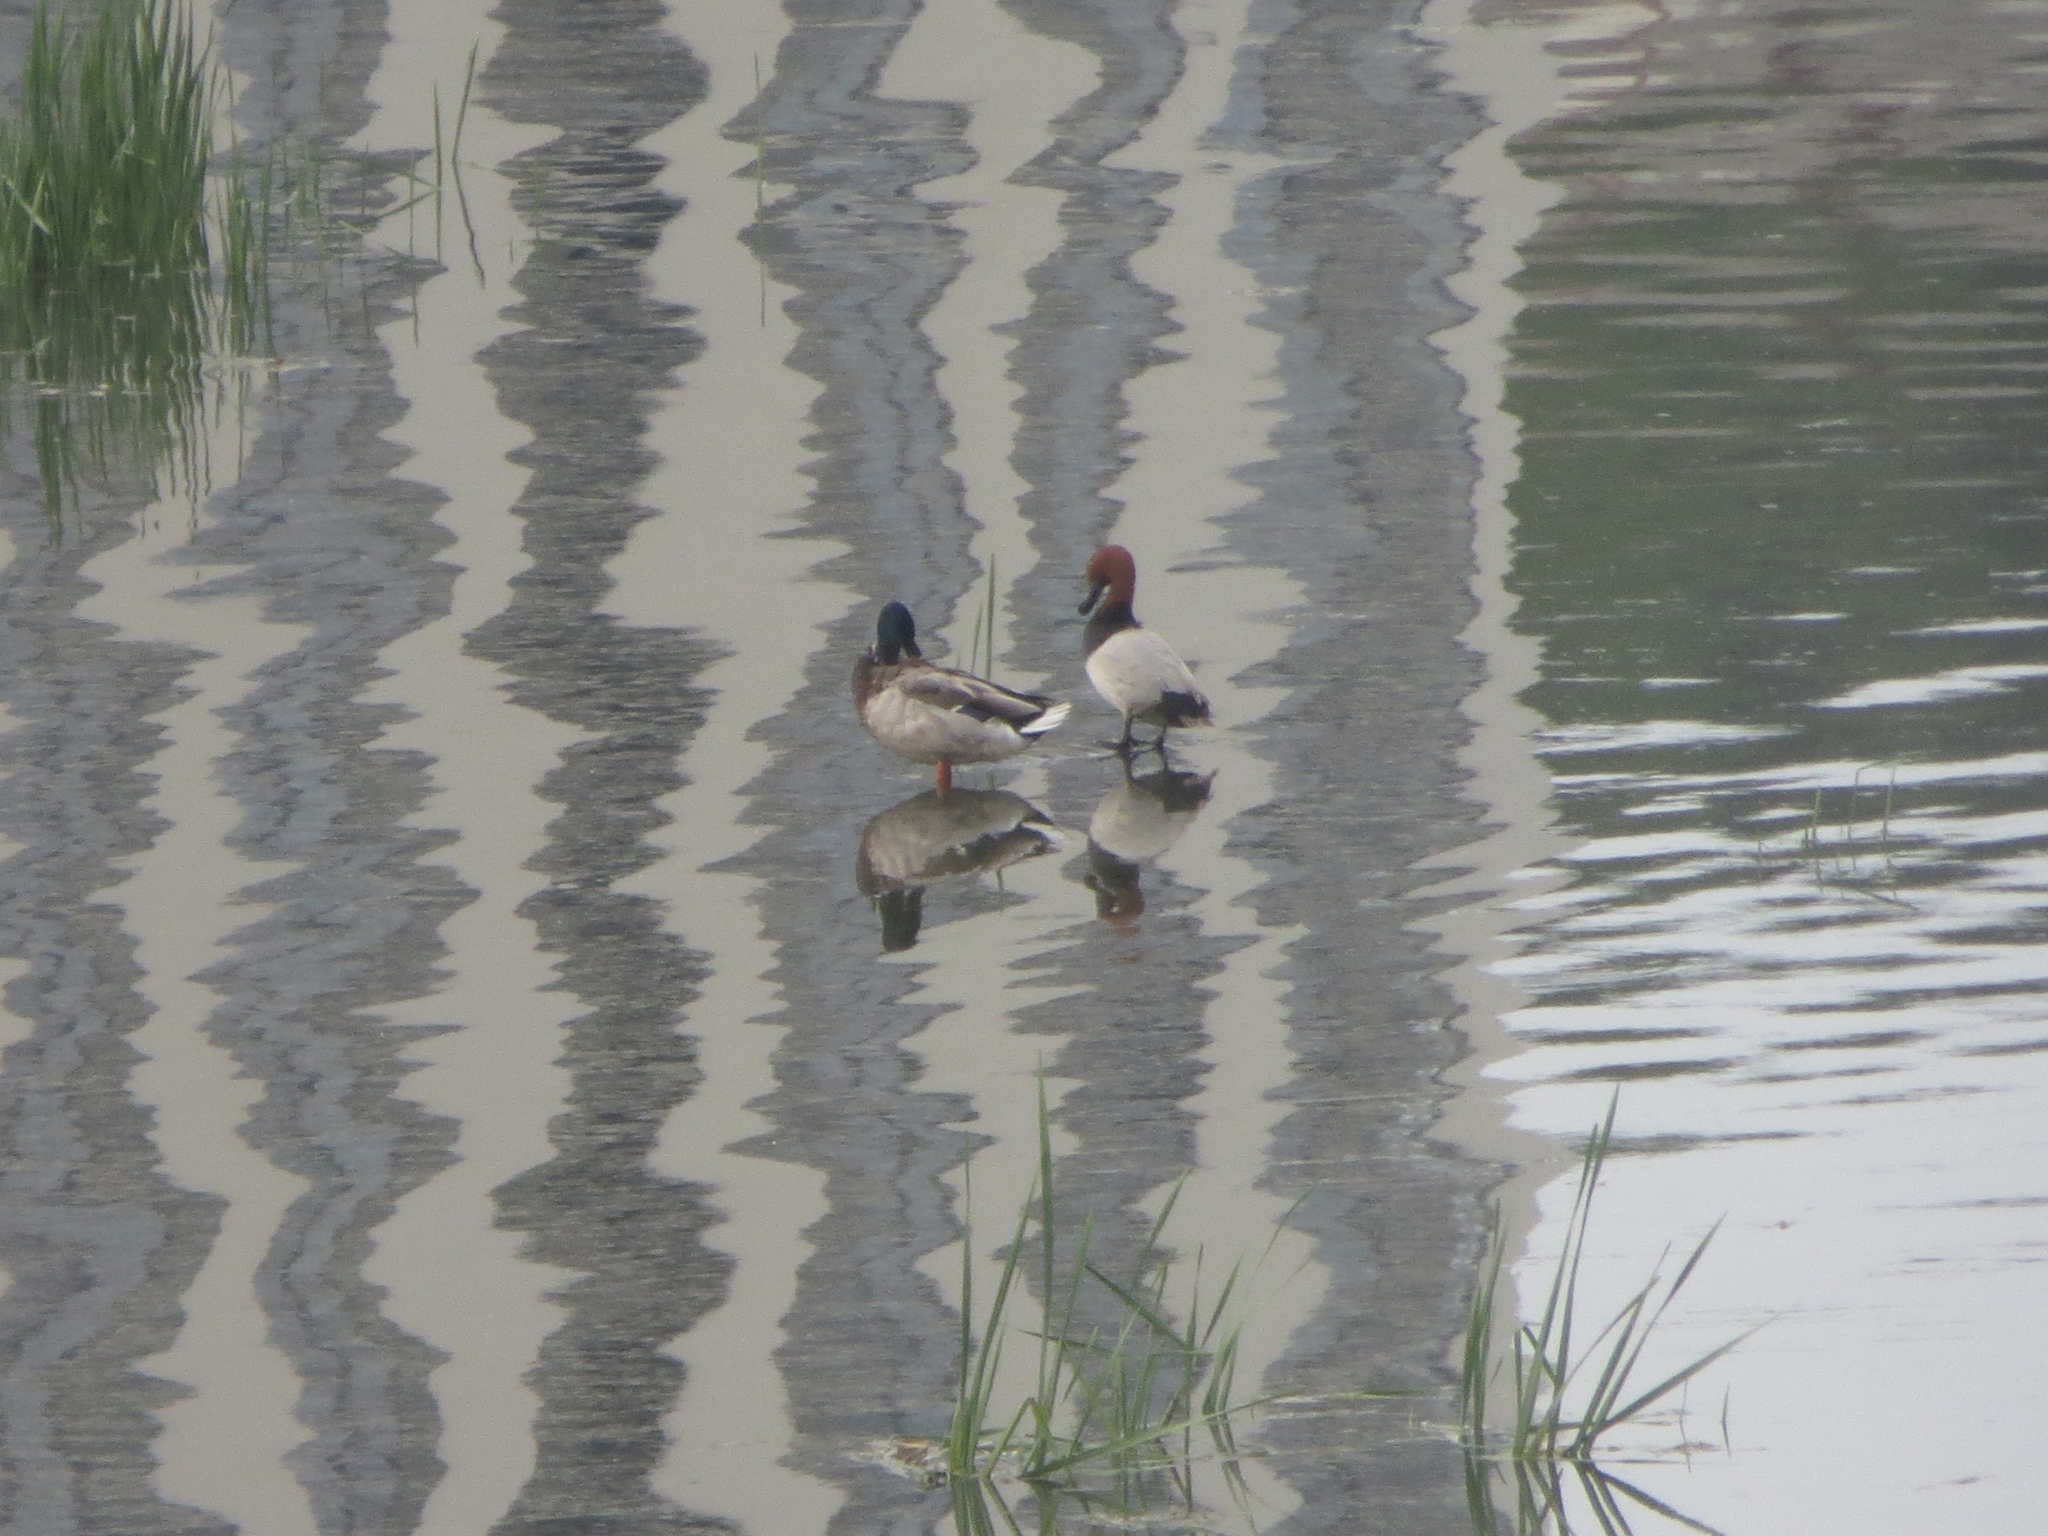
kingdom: Animalia
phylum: Chordata
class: Aves
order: Anseriformes
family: Anatidae
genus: Aythya
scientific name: Aythya ferina
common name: Common pochard
